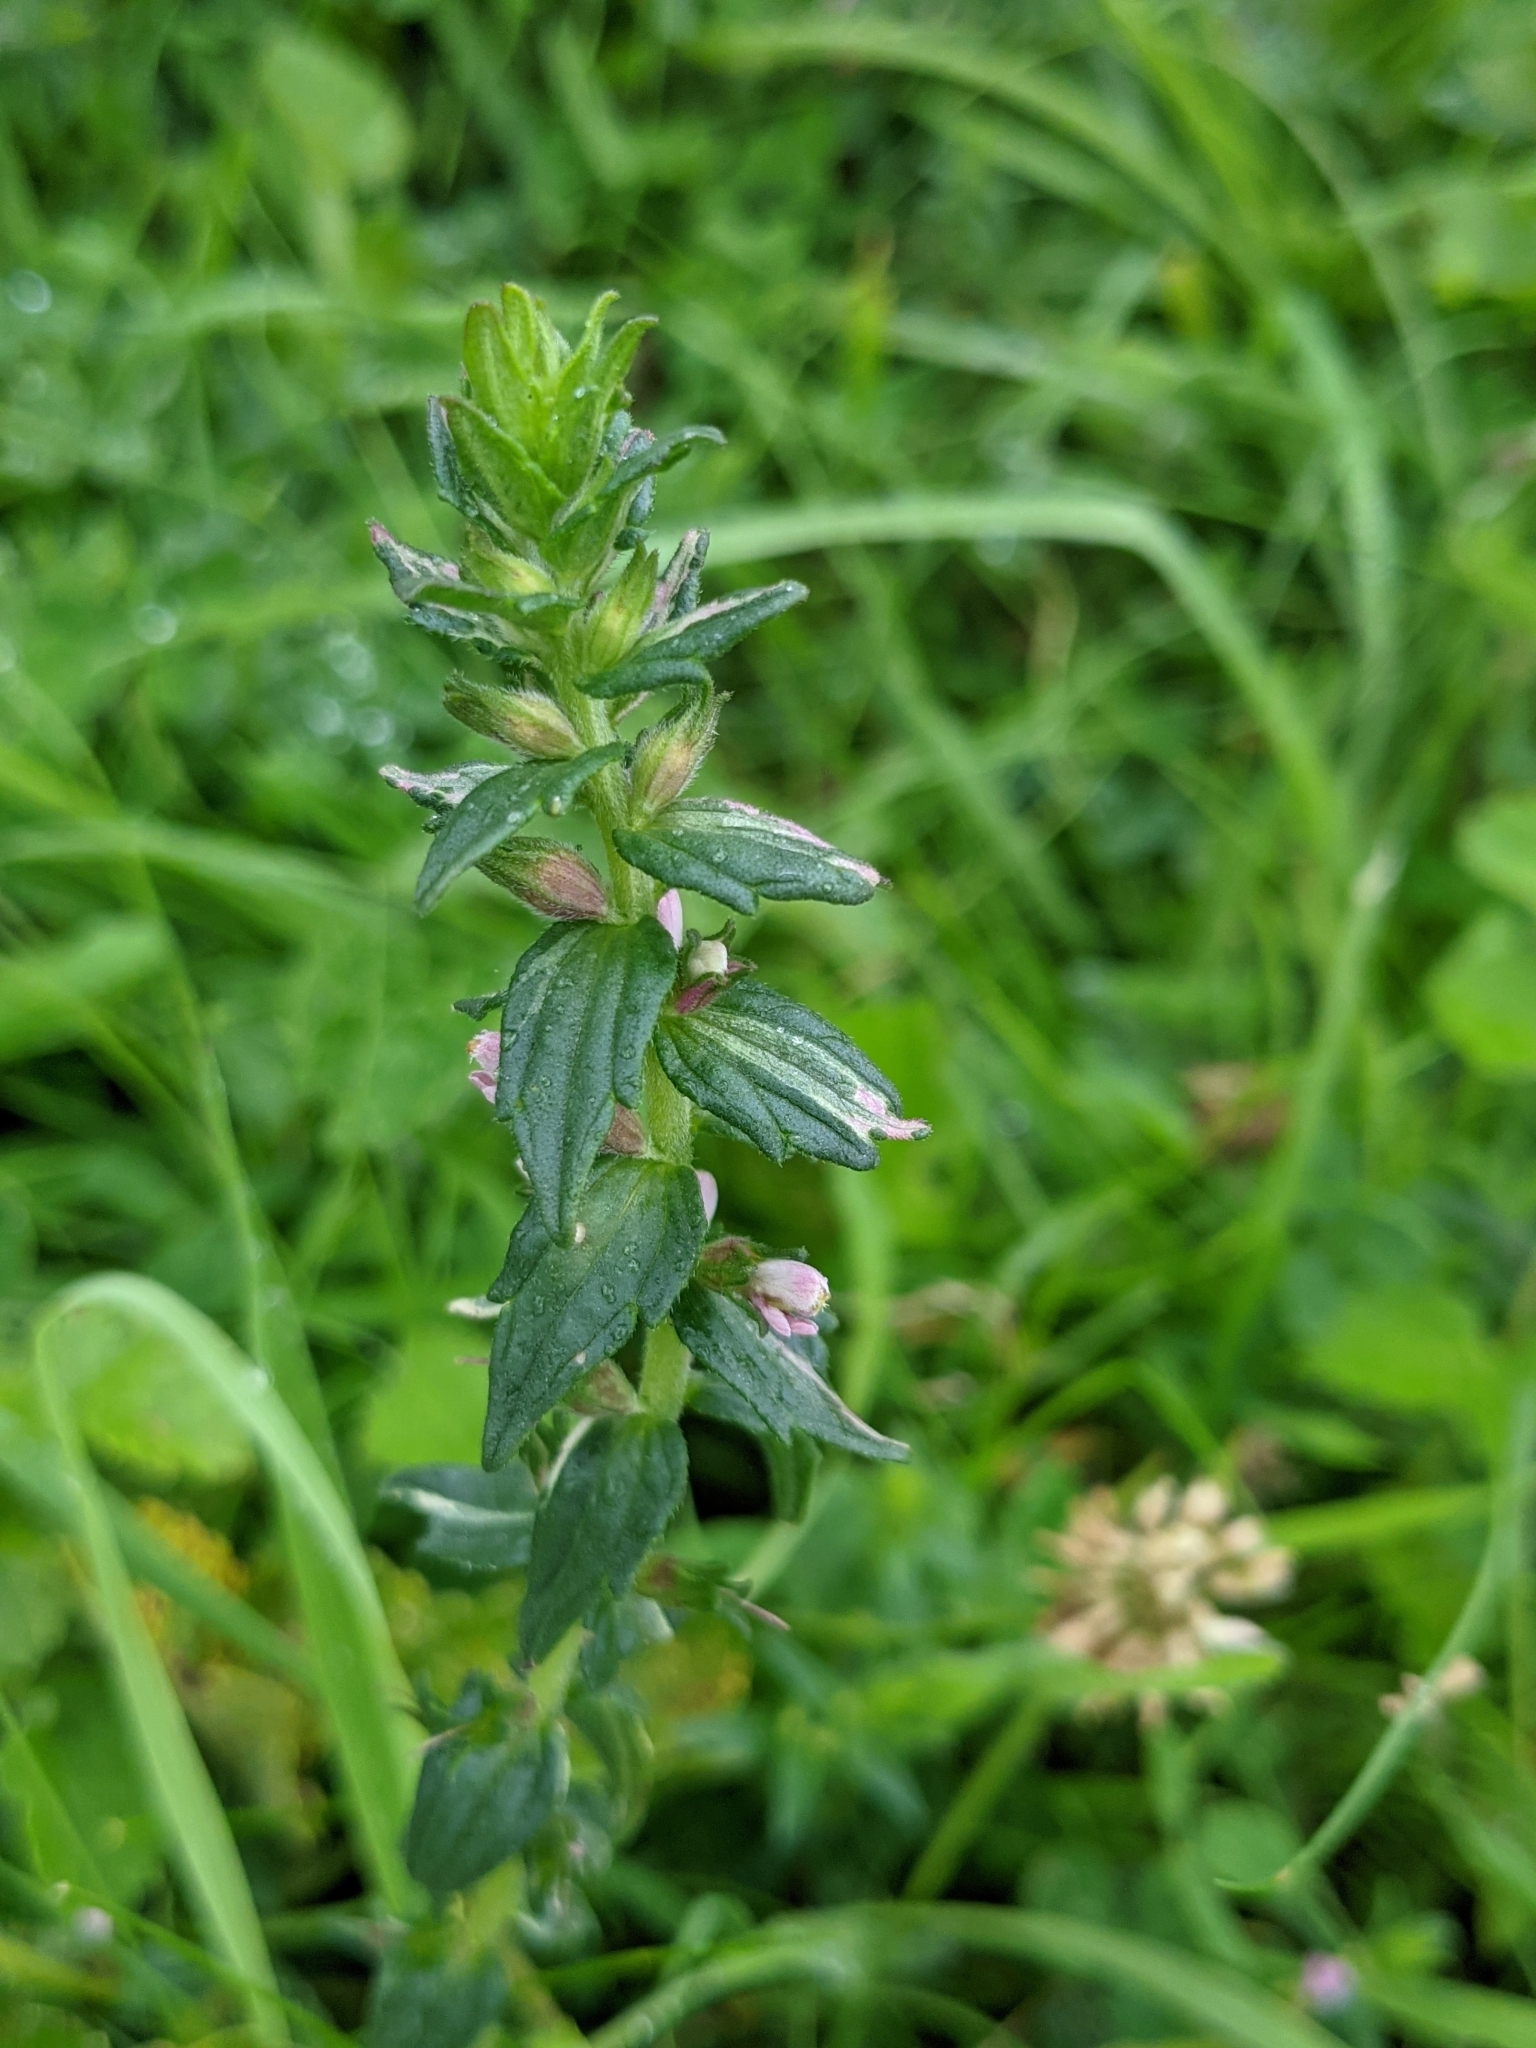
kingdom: Plantae
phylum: Tracheophyta
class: Magnoliopsida
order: Lamiales
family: Orobanchaceae
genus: Odontites
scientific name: Odontites vernus
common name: Red bartsia
